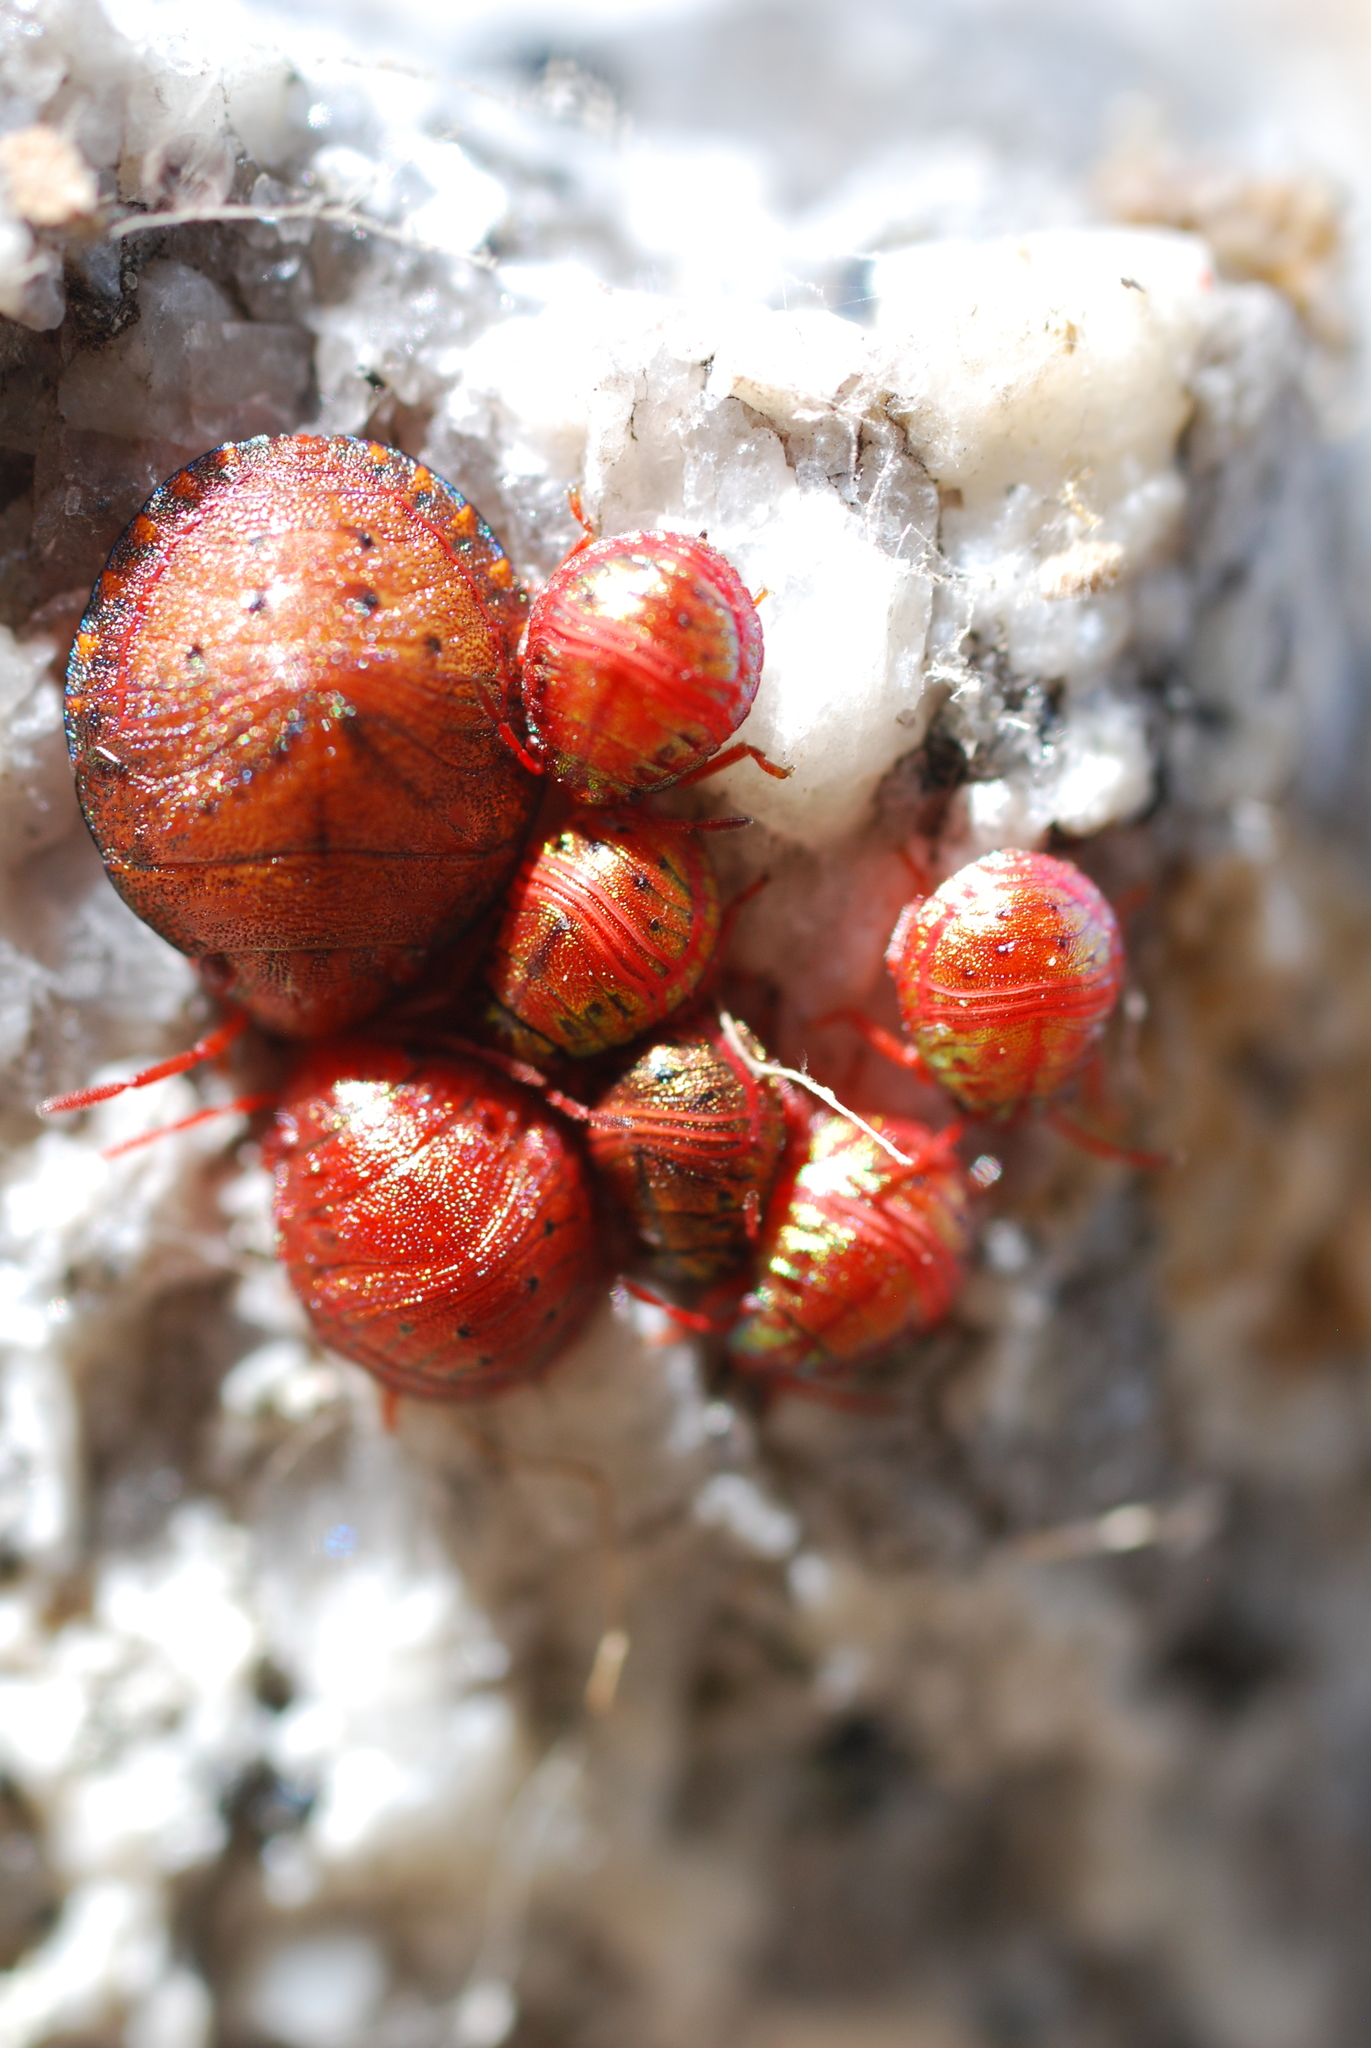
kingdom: Animalia
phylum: Arthropoda
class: Insecta
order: Hemiptera
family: Scutelleridae
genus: Solenosthedium
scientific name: Solenosthedium bilunatum
